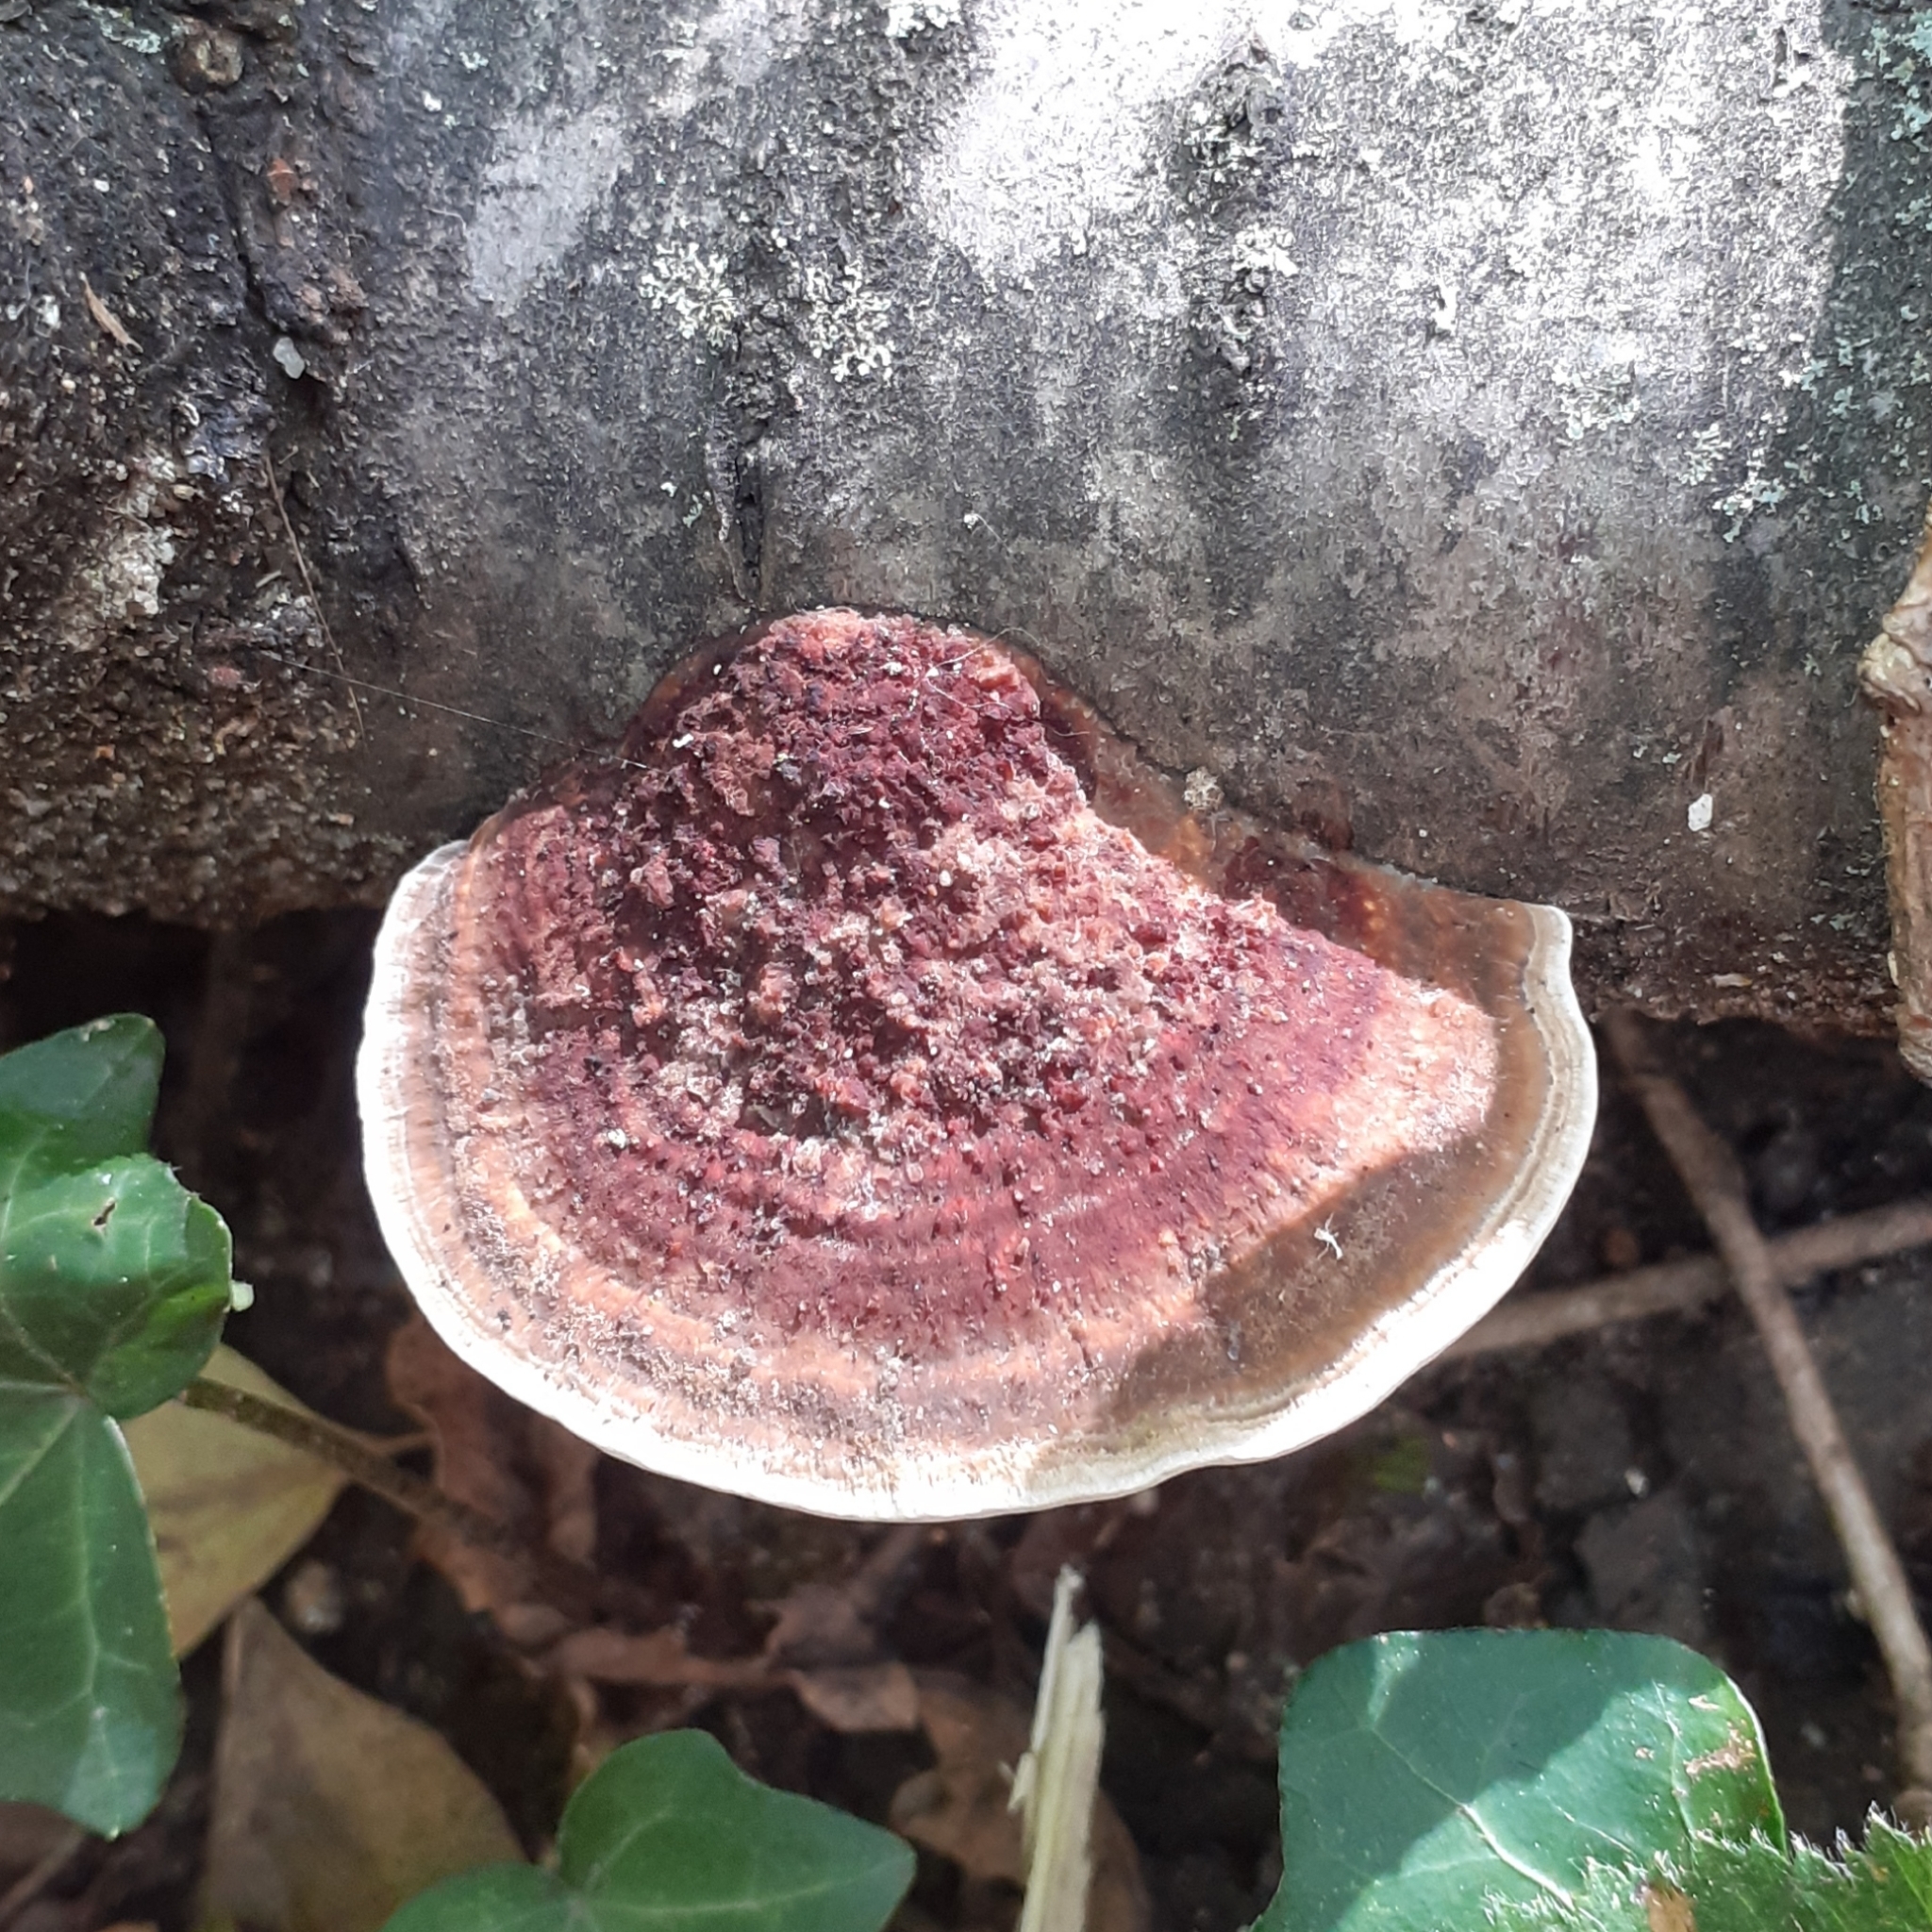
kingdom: Fungi
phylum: Basidiomycota
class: Agaricomycetes
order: Polyporales
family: Polyporaceae
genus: Daedaleopsis
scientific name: Daedaleopsis confragosa
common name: Blushing bracket
